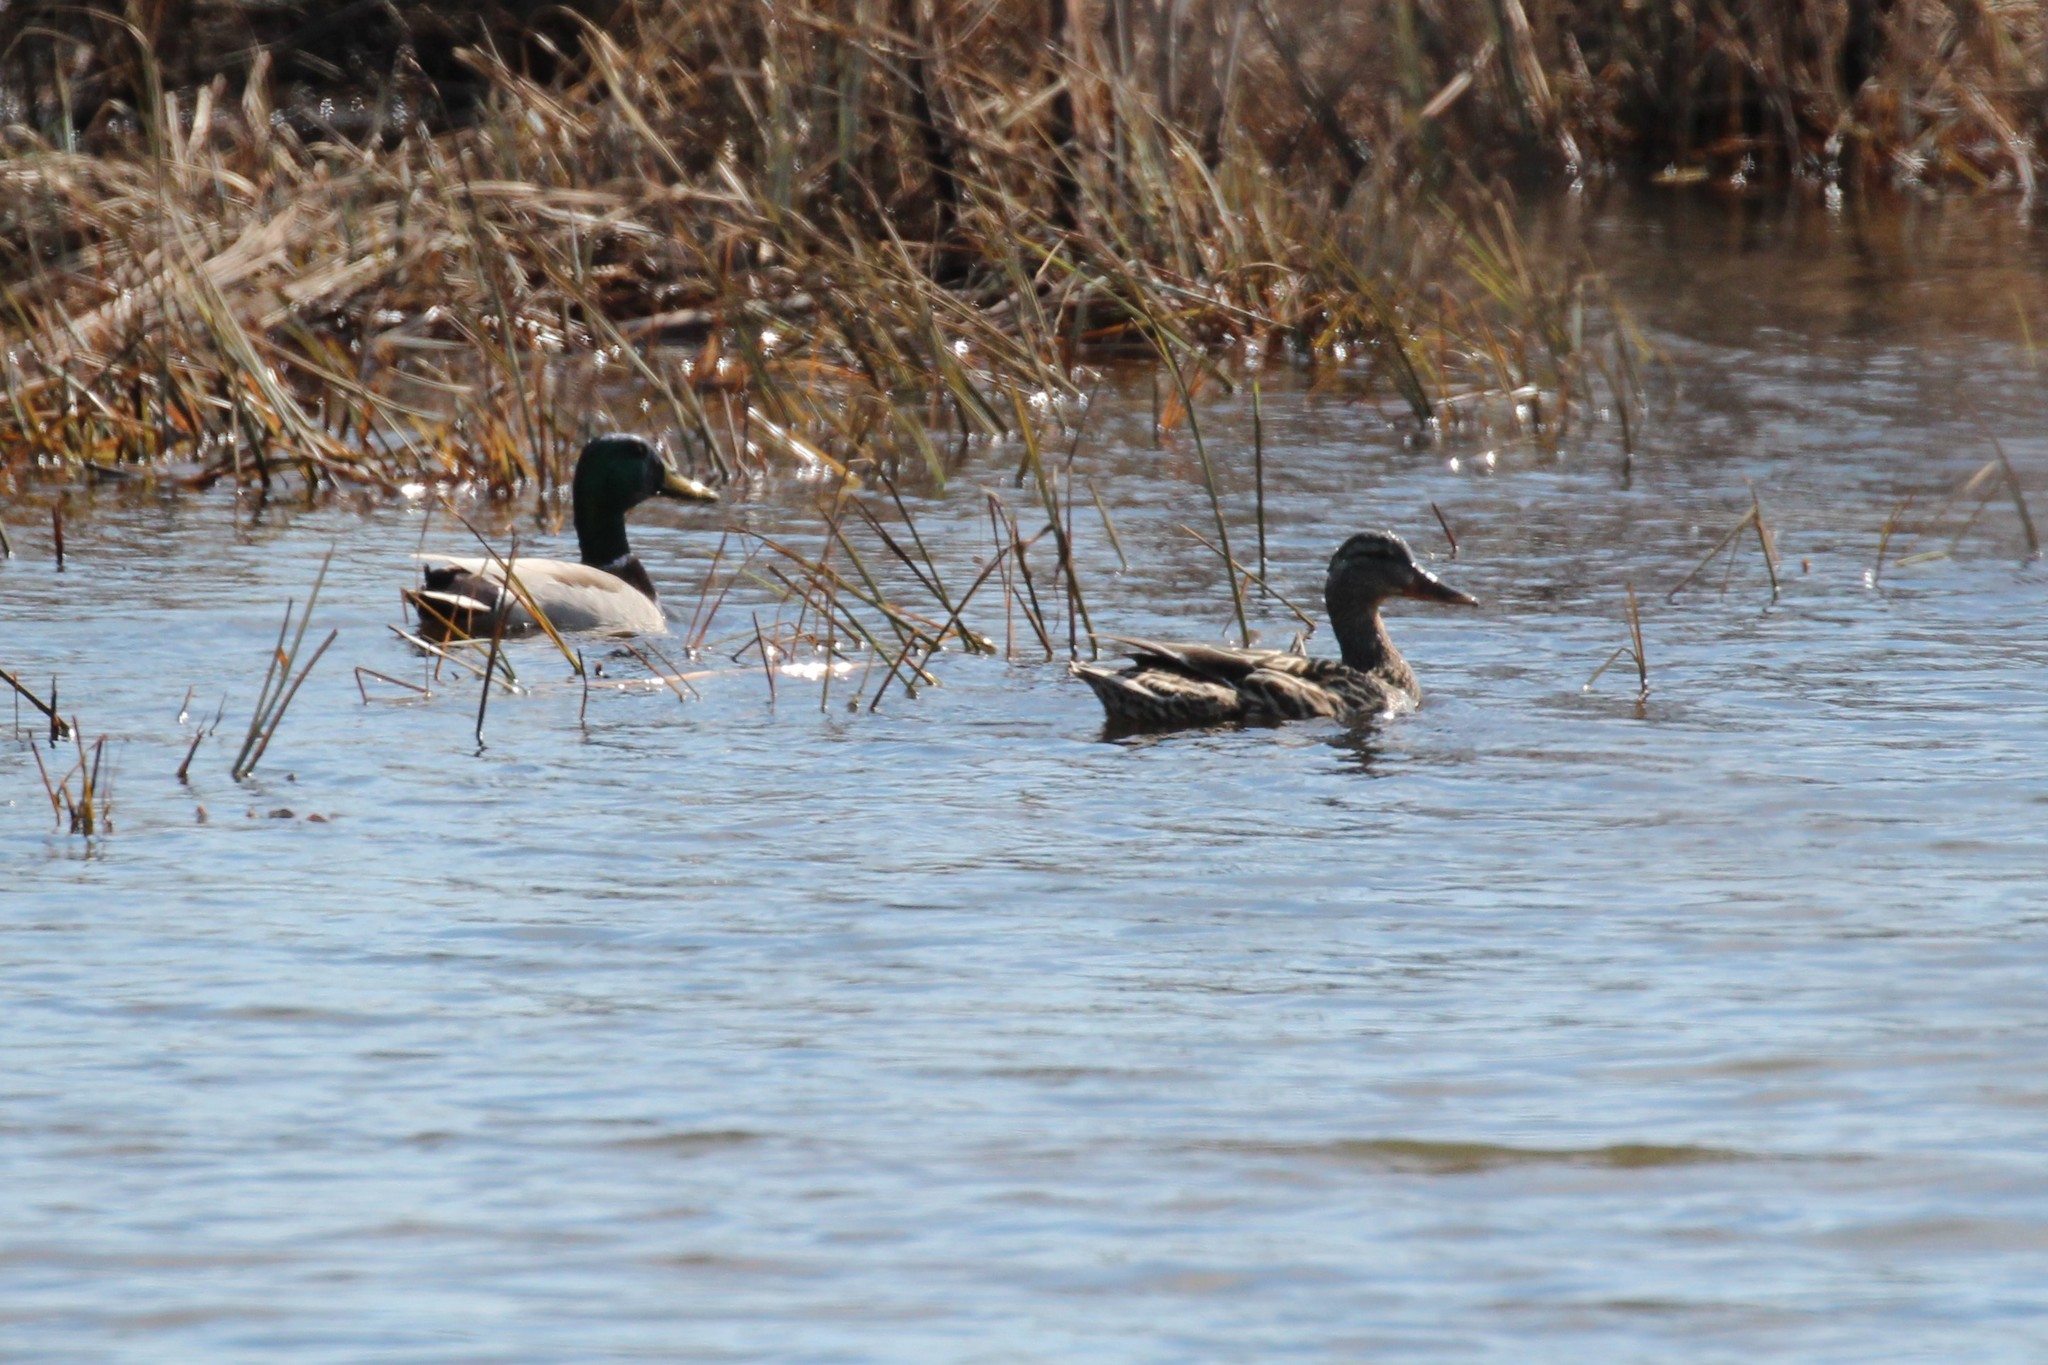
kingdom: Animalia
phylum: Chordata
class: Aves
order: Anseriformes
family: Anatidae
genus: Anas
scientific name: Anas platyrhynchos
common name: Mallard
